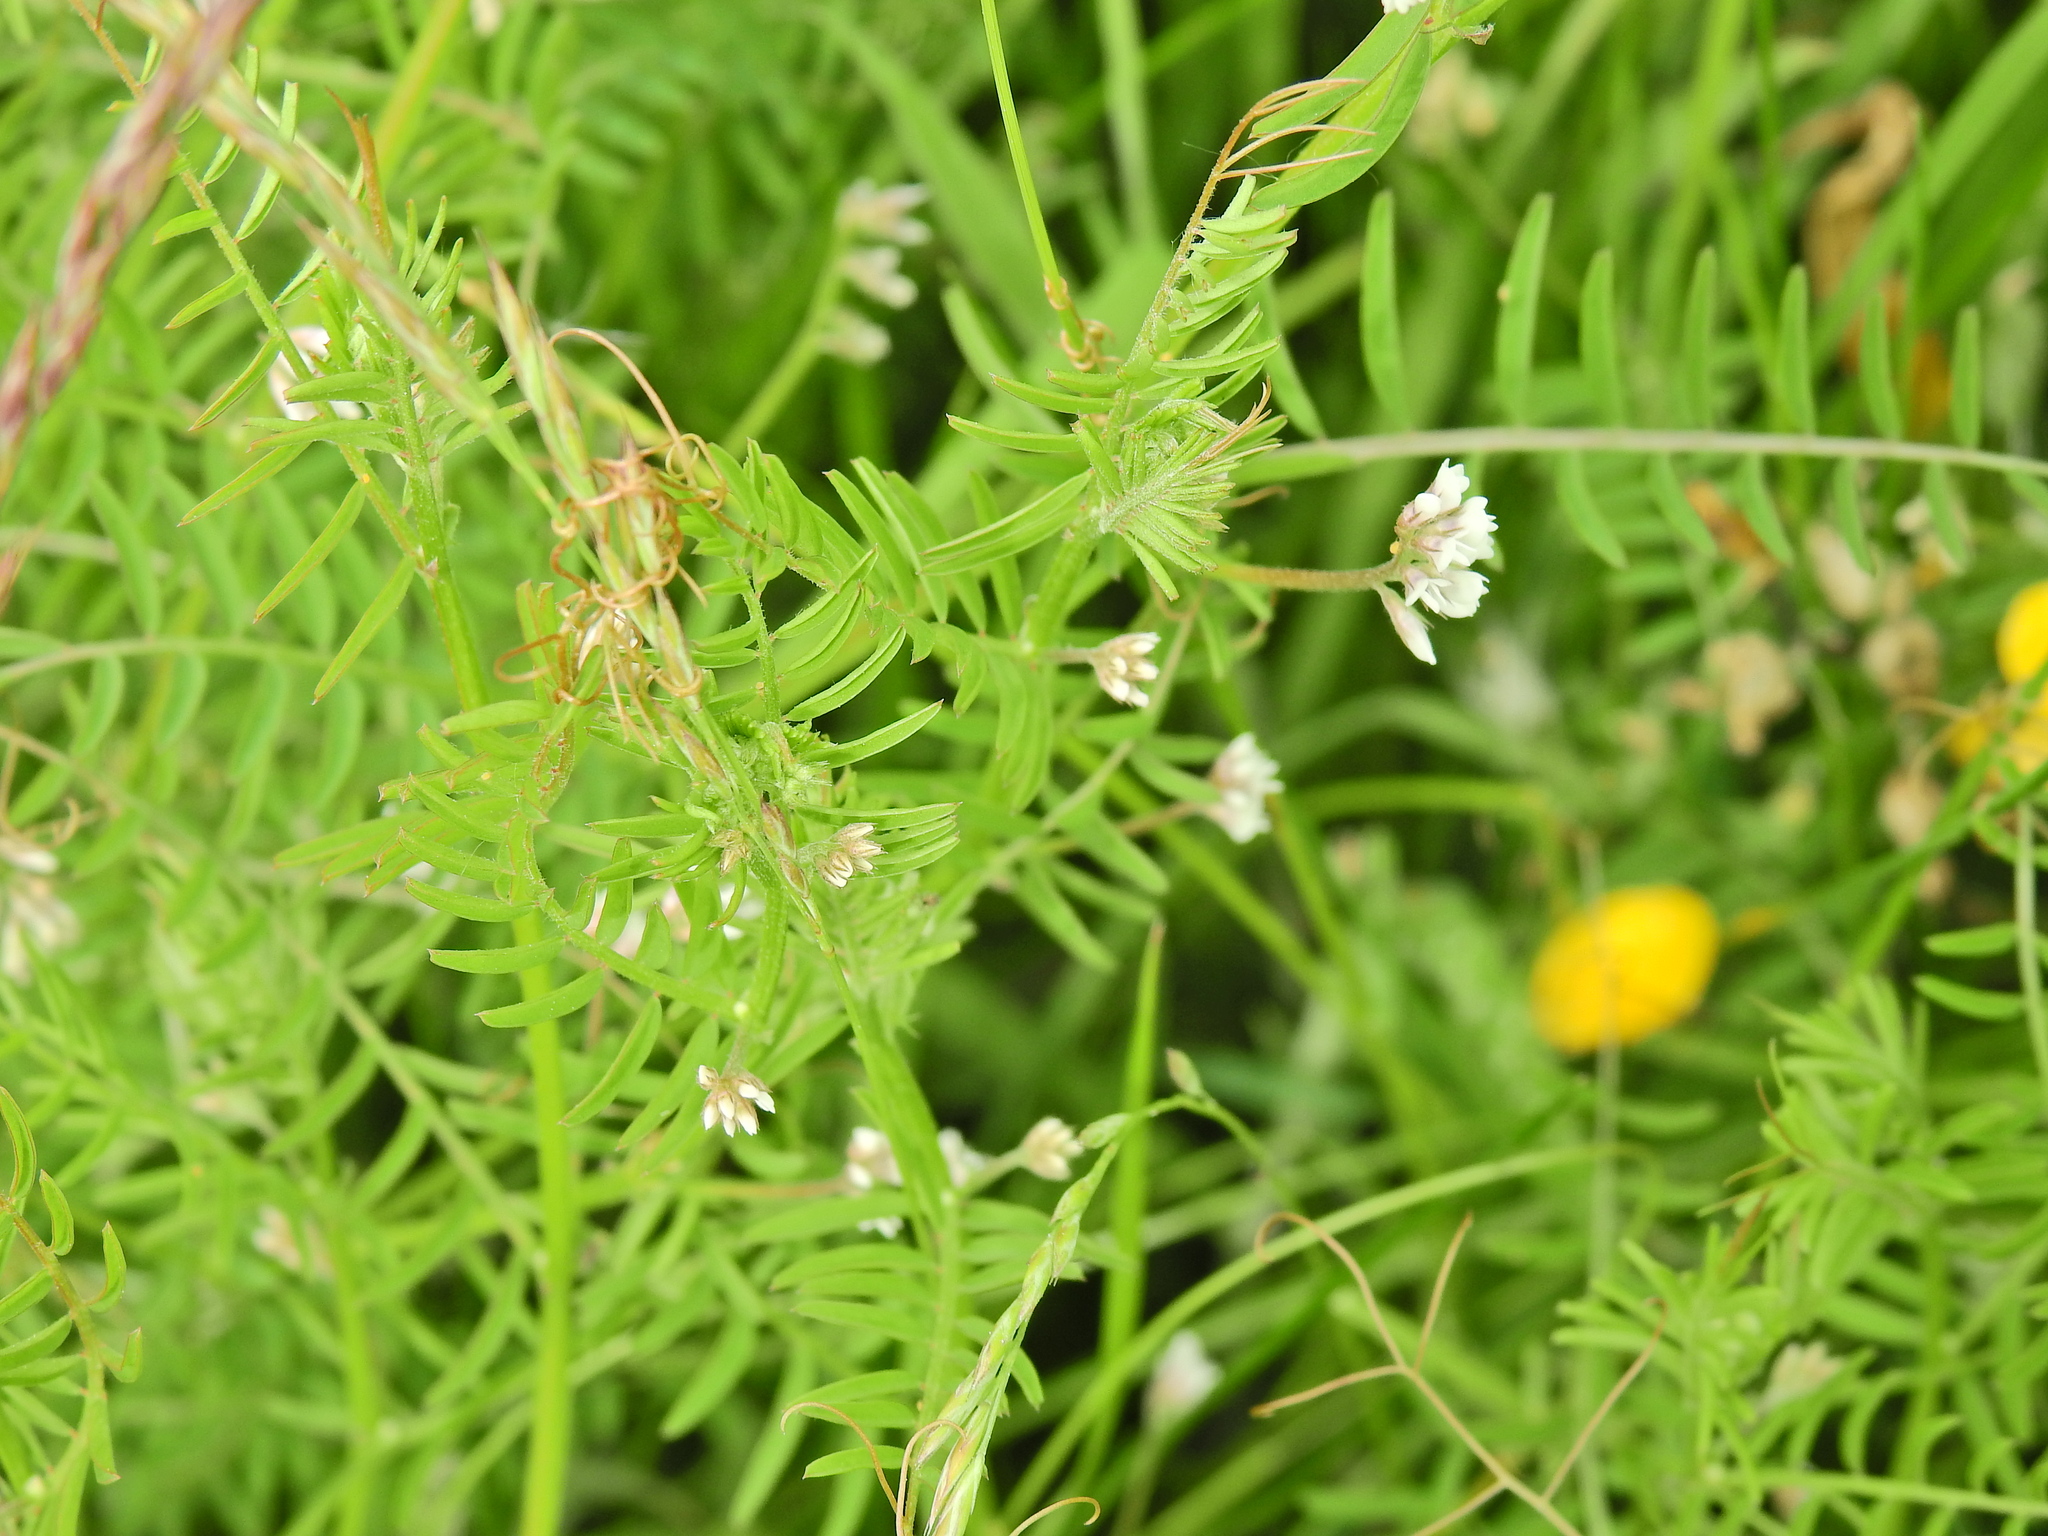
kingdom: Plantae
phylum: Tracheophyta
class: Magnoliopsida
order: Fabales
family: Fabaceae
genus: Vicia
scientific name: Vicia hirsuta
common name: Tiny vetch
